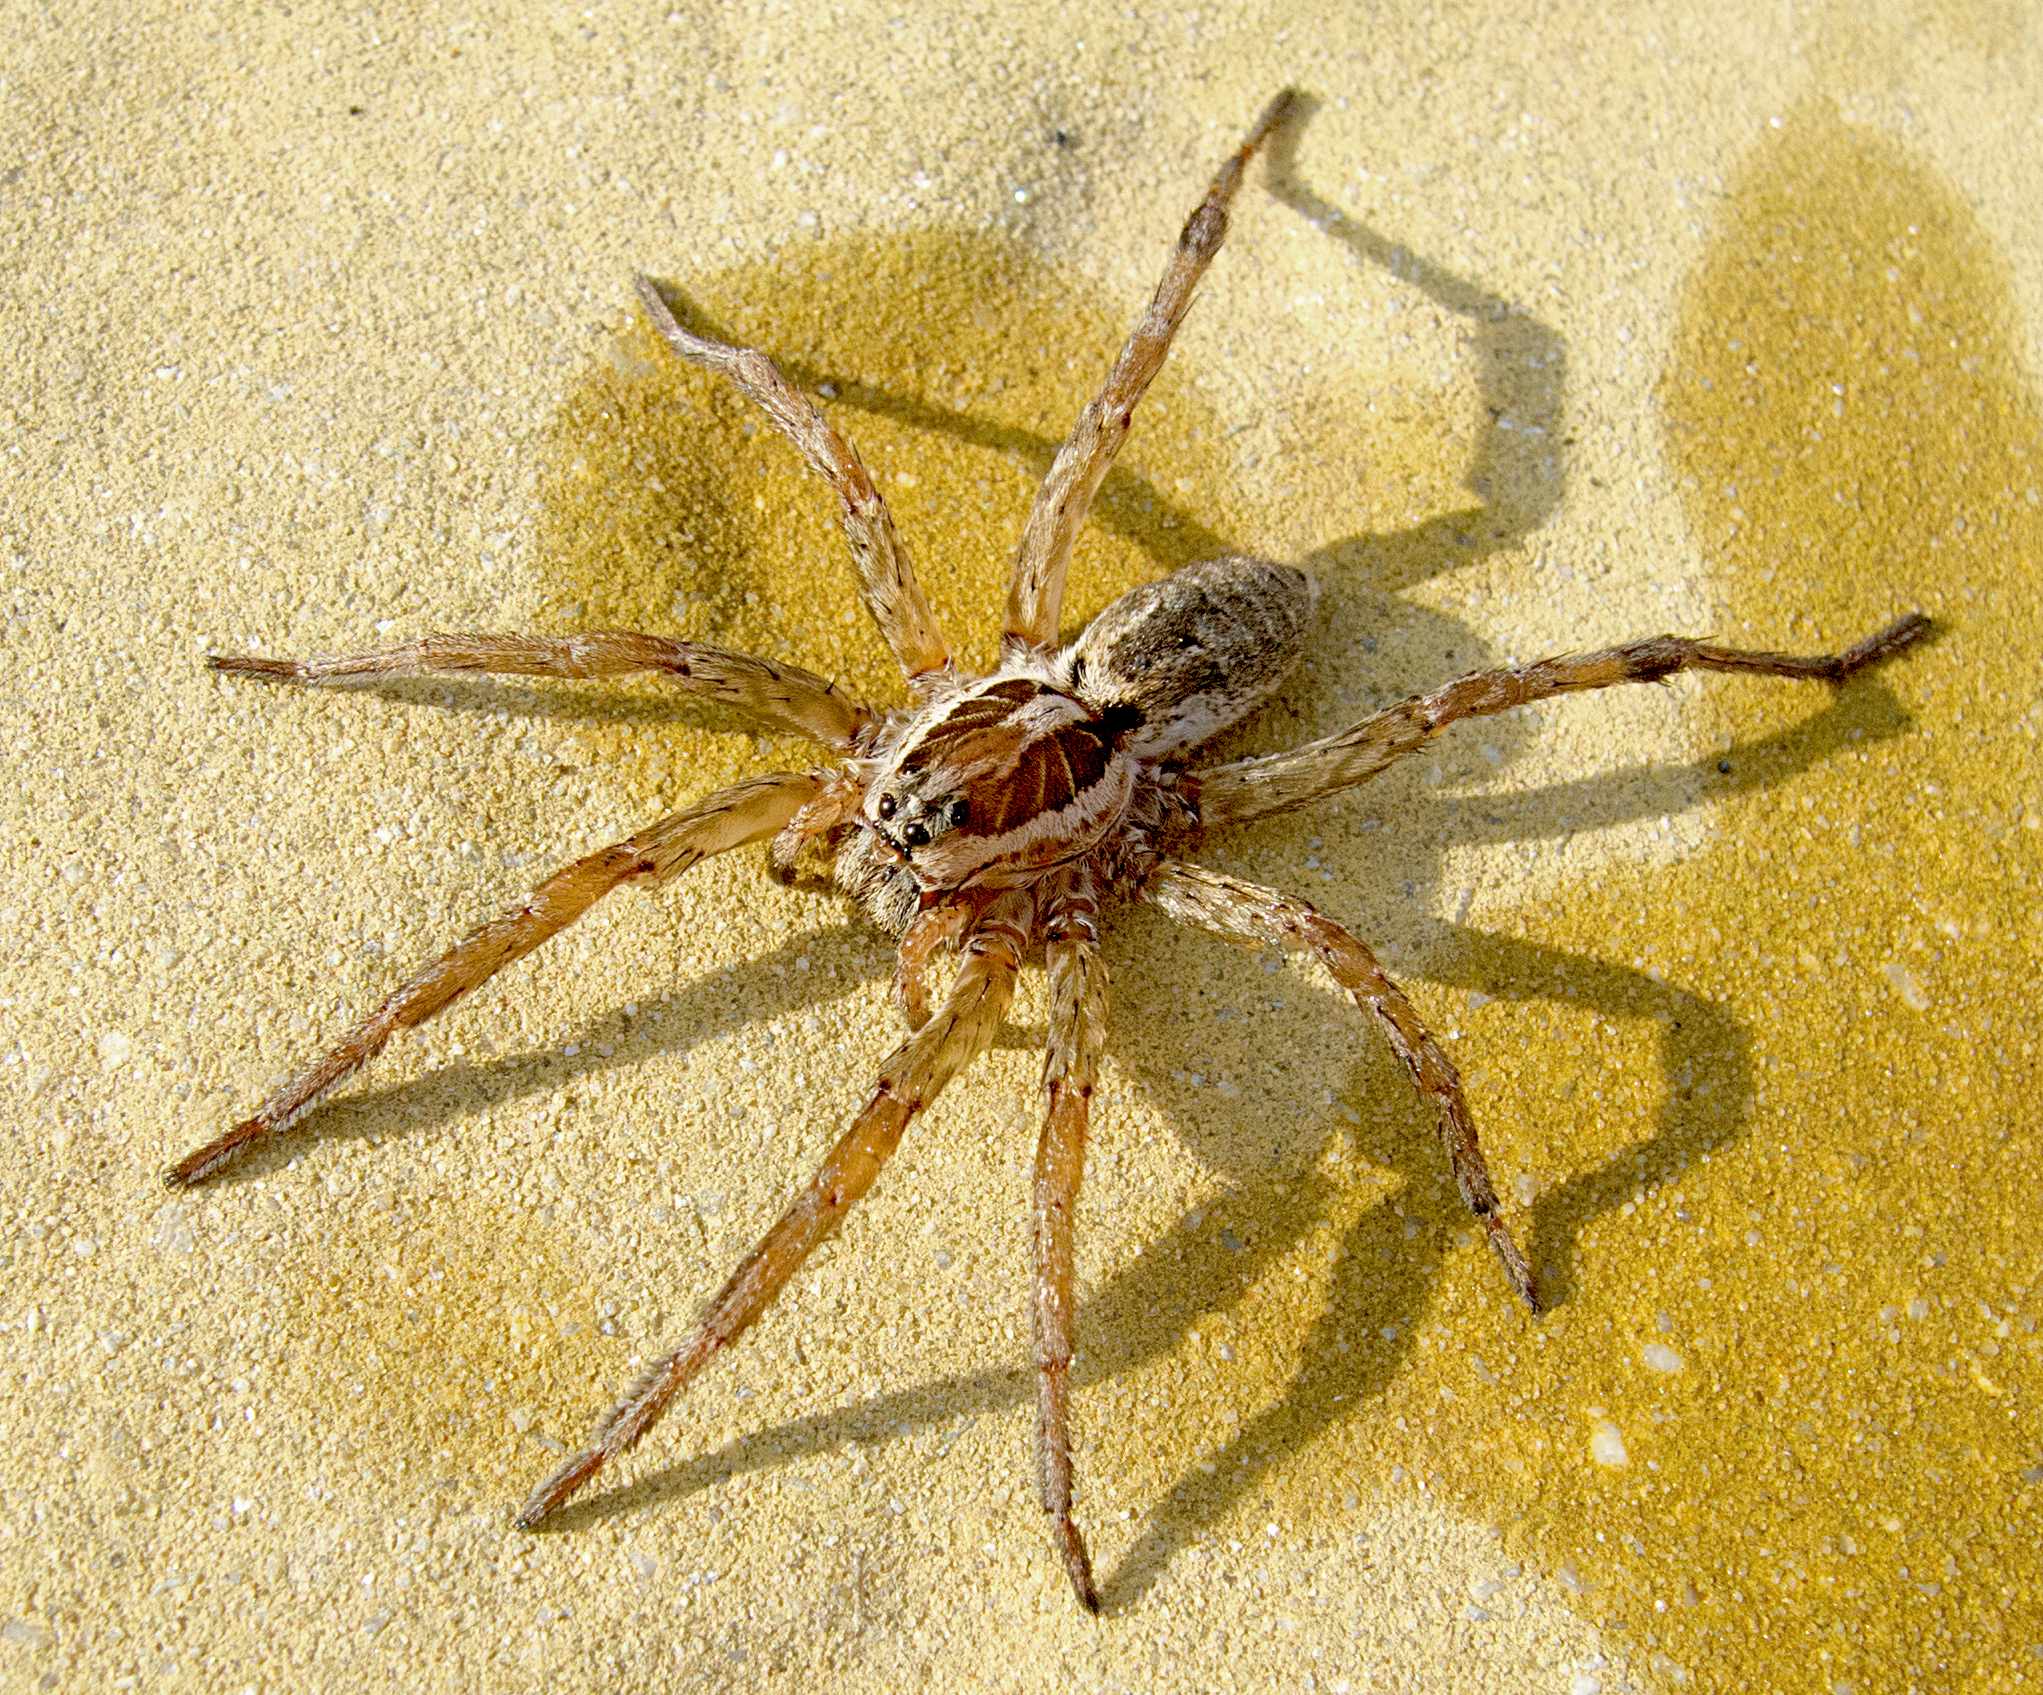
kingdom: Animalia
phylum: Arthropoda
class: Arachnida
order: Araneae
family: Lycosidae
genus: Hogna
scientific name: Hogna radiata
